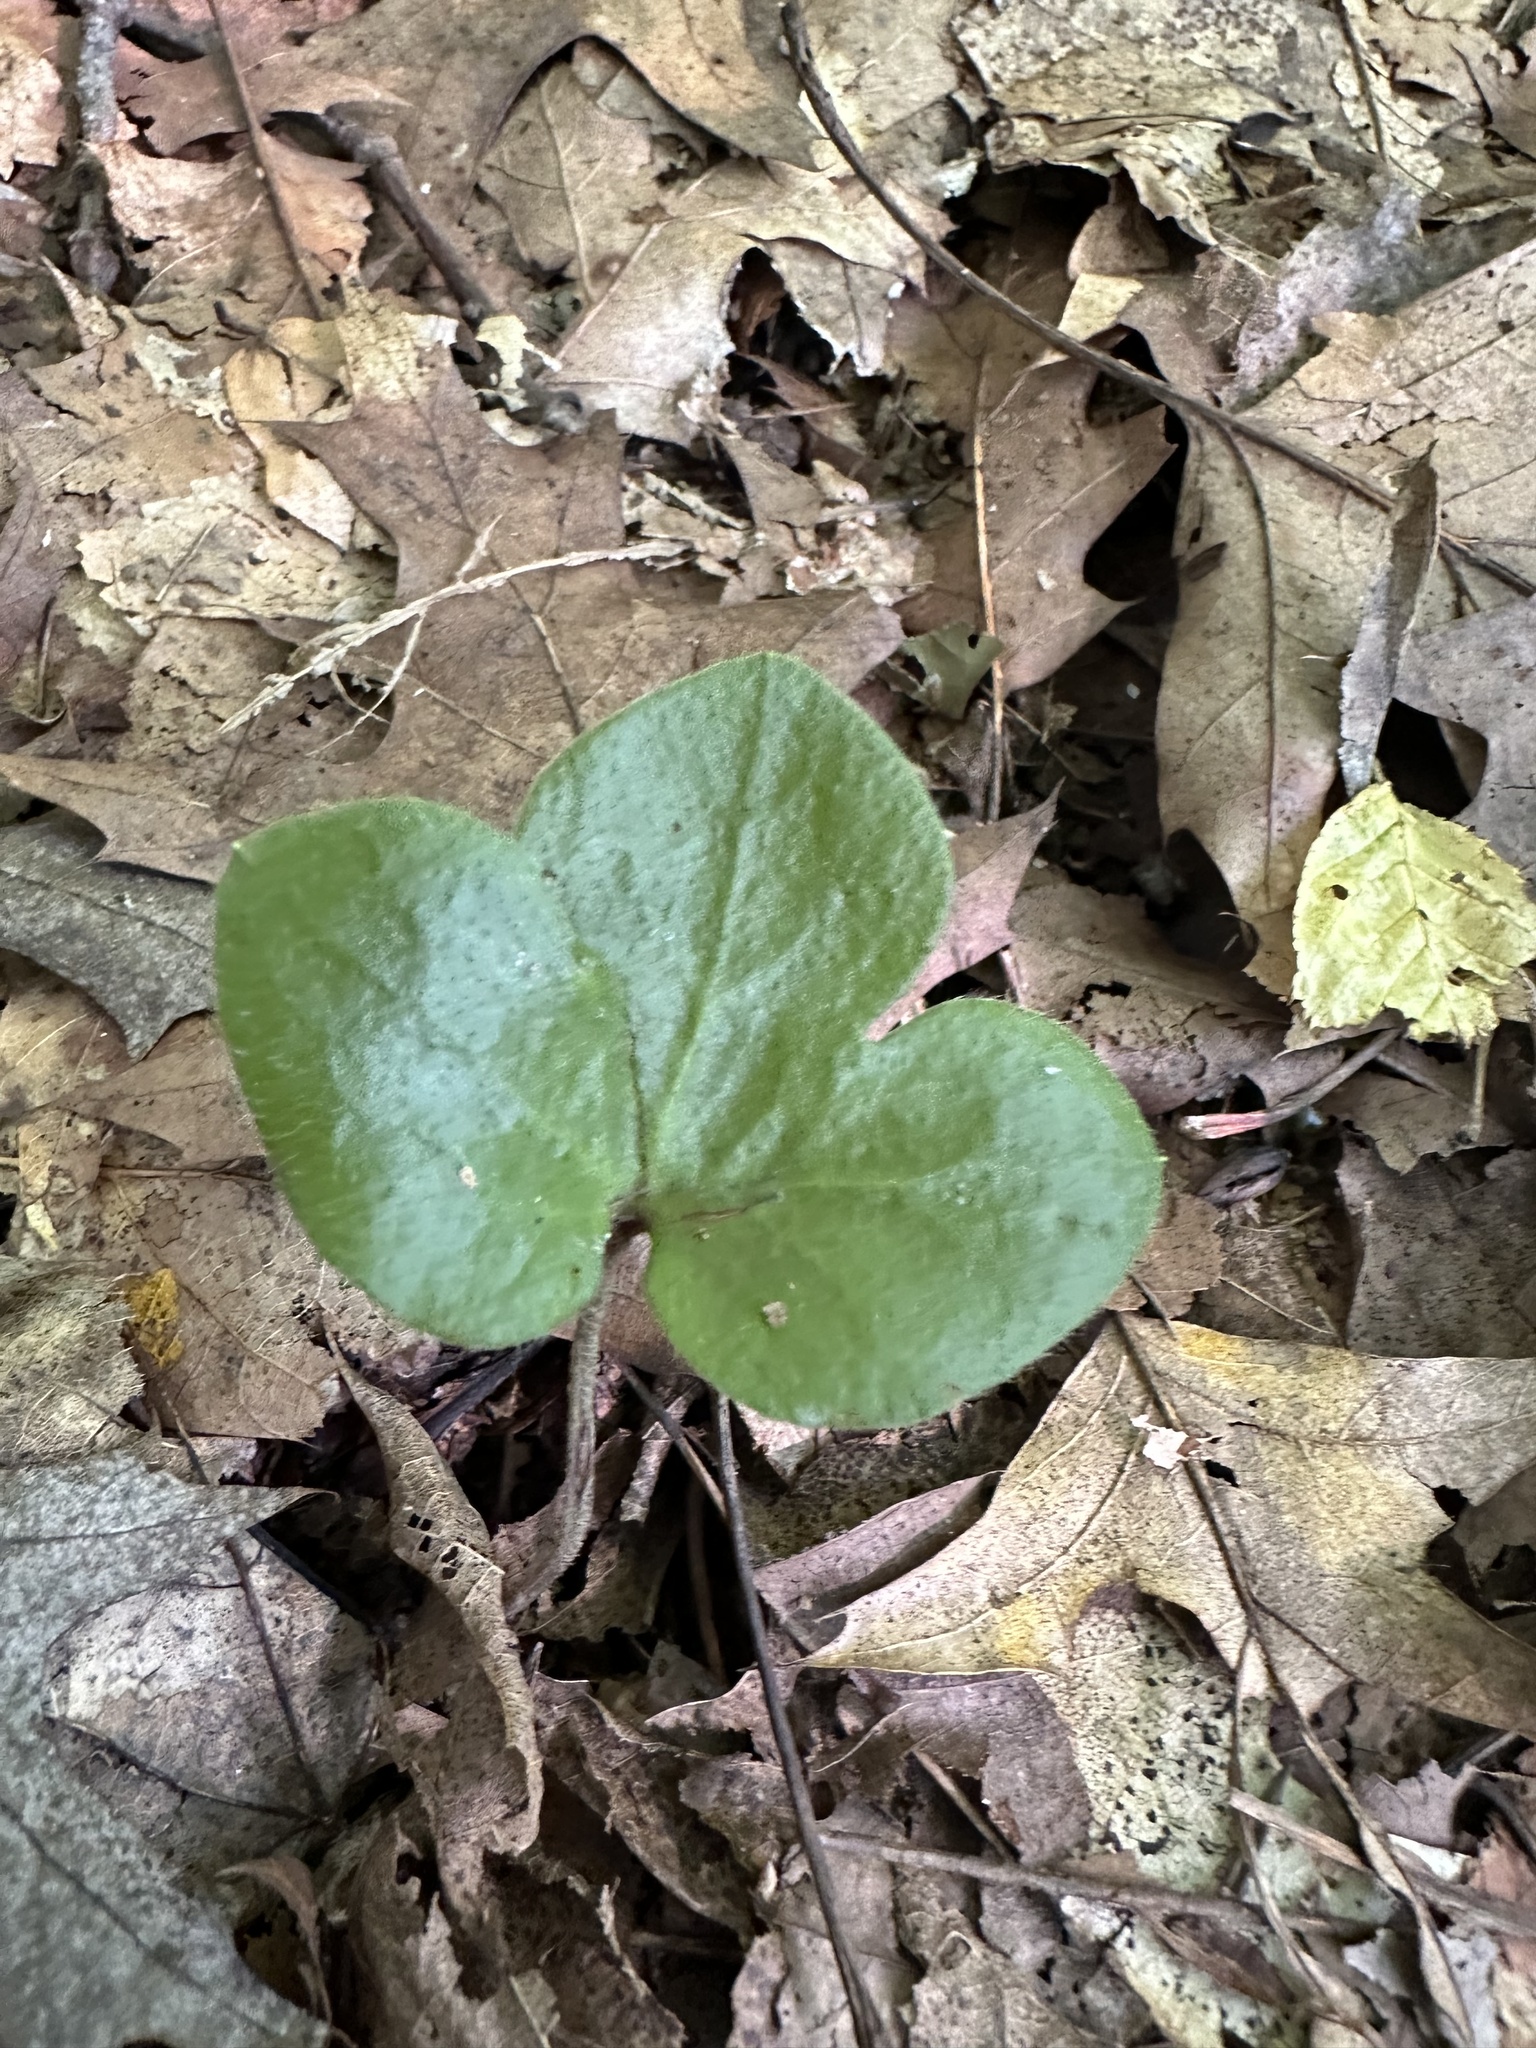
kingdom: Plantae
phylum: Tracheophyta
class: Magnoliopsida
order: Ranunculales
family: Ranunculaceae
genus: Hepatica
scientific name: Hepatica americana
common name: American hepatica
